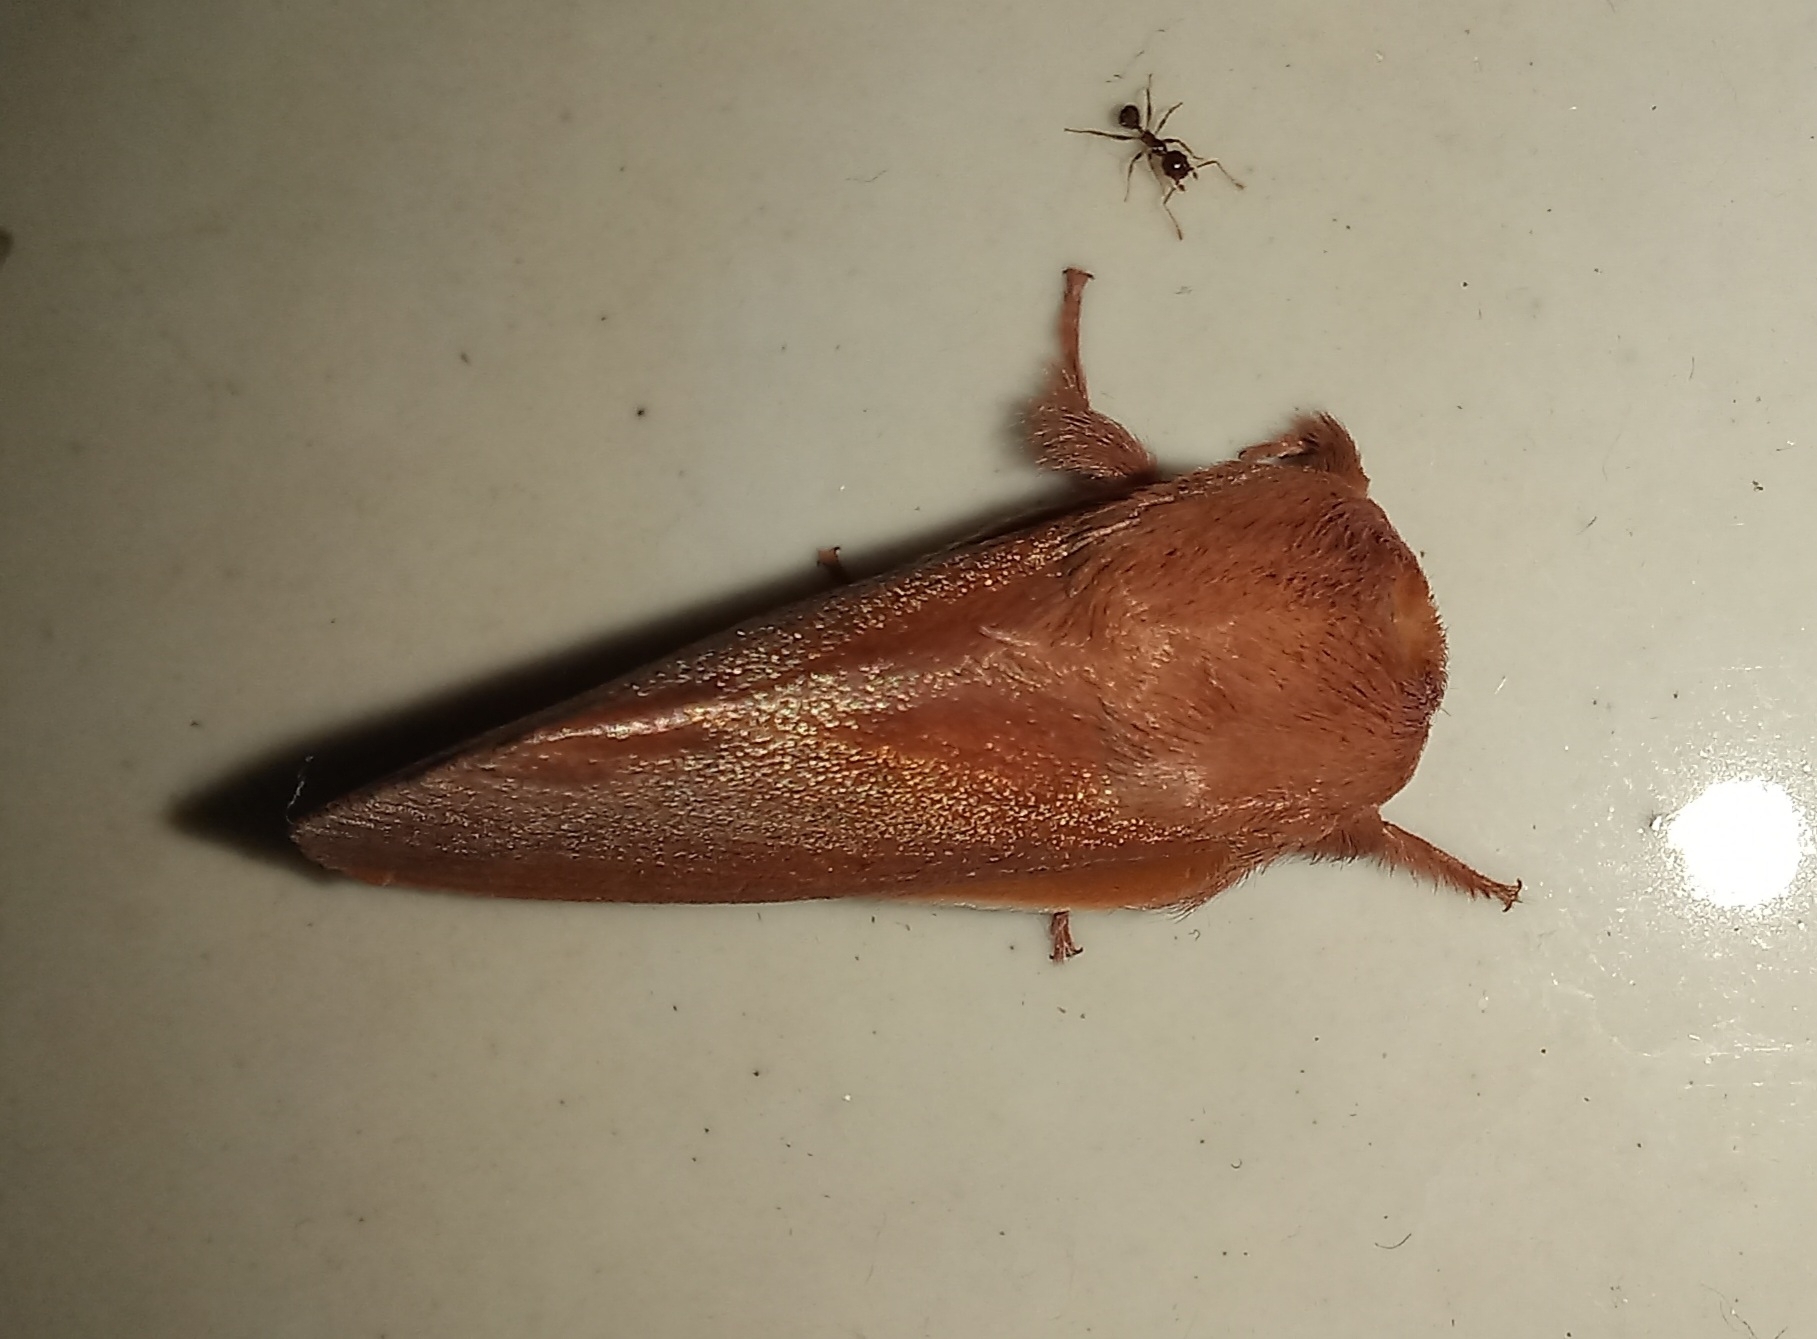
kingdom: Animalia
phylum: Arthropoda
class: Insecta
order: Lepidoptera
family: Limacodidae
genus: Micraphe
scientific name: Micraphe lateritia
